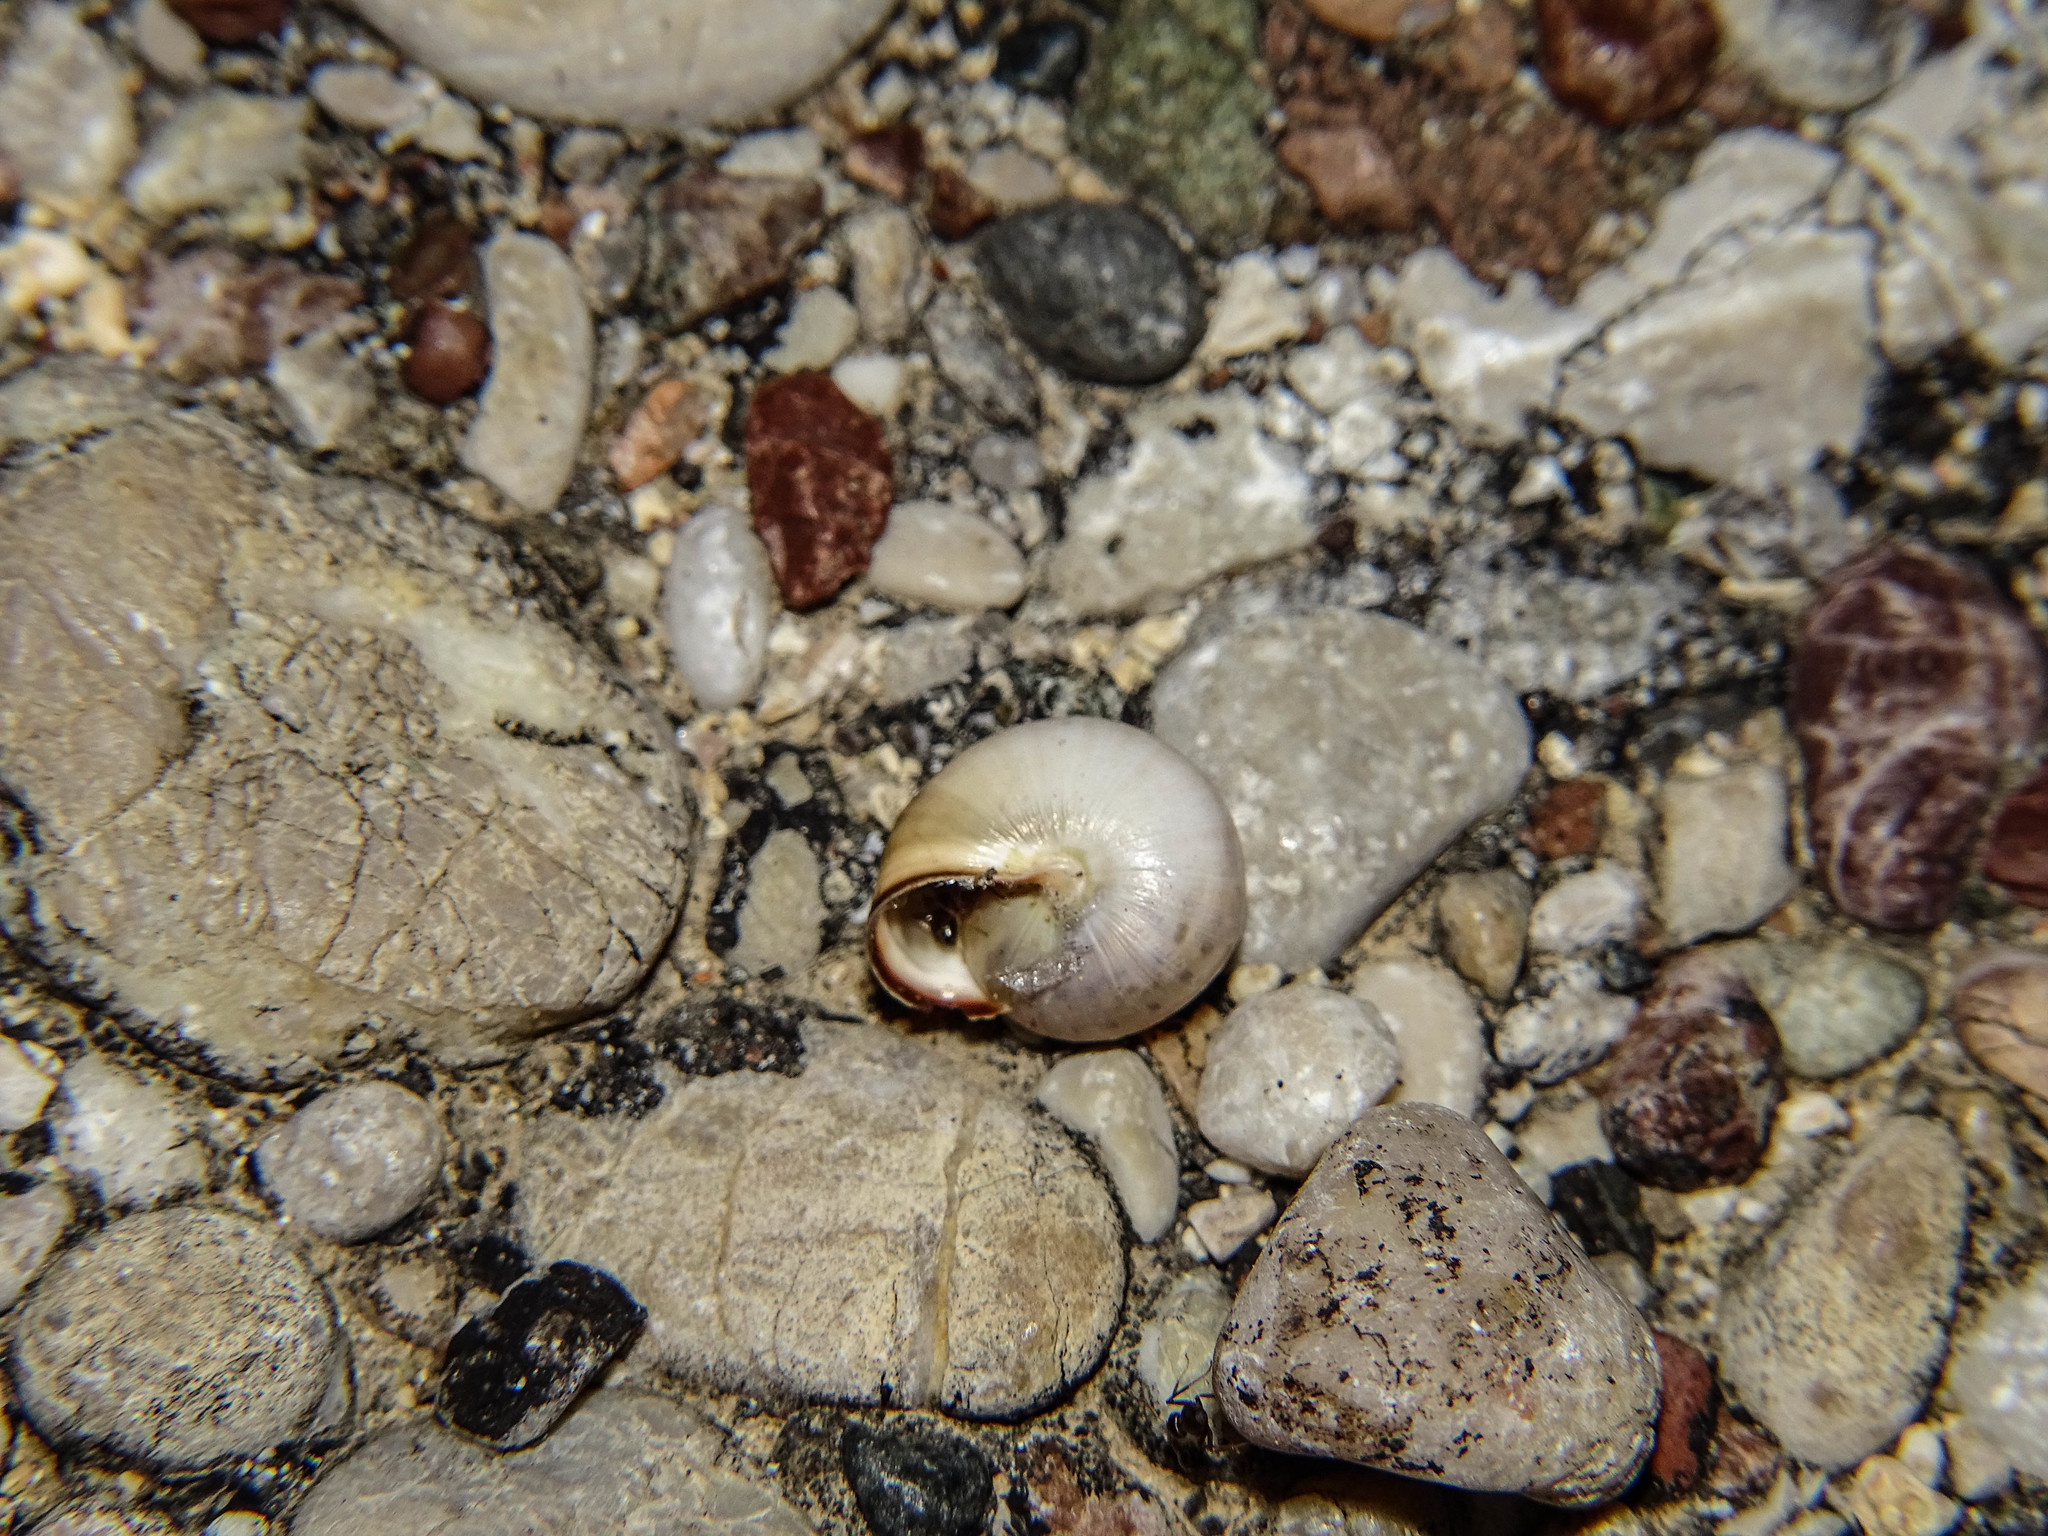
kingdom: Animalia
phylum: Mollusca
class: Gastropoda
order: Stylommatophora
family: Hygromiidae
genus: Monacha
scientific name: Monacha syriaca
